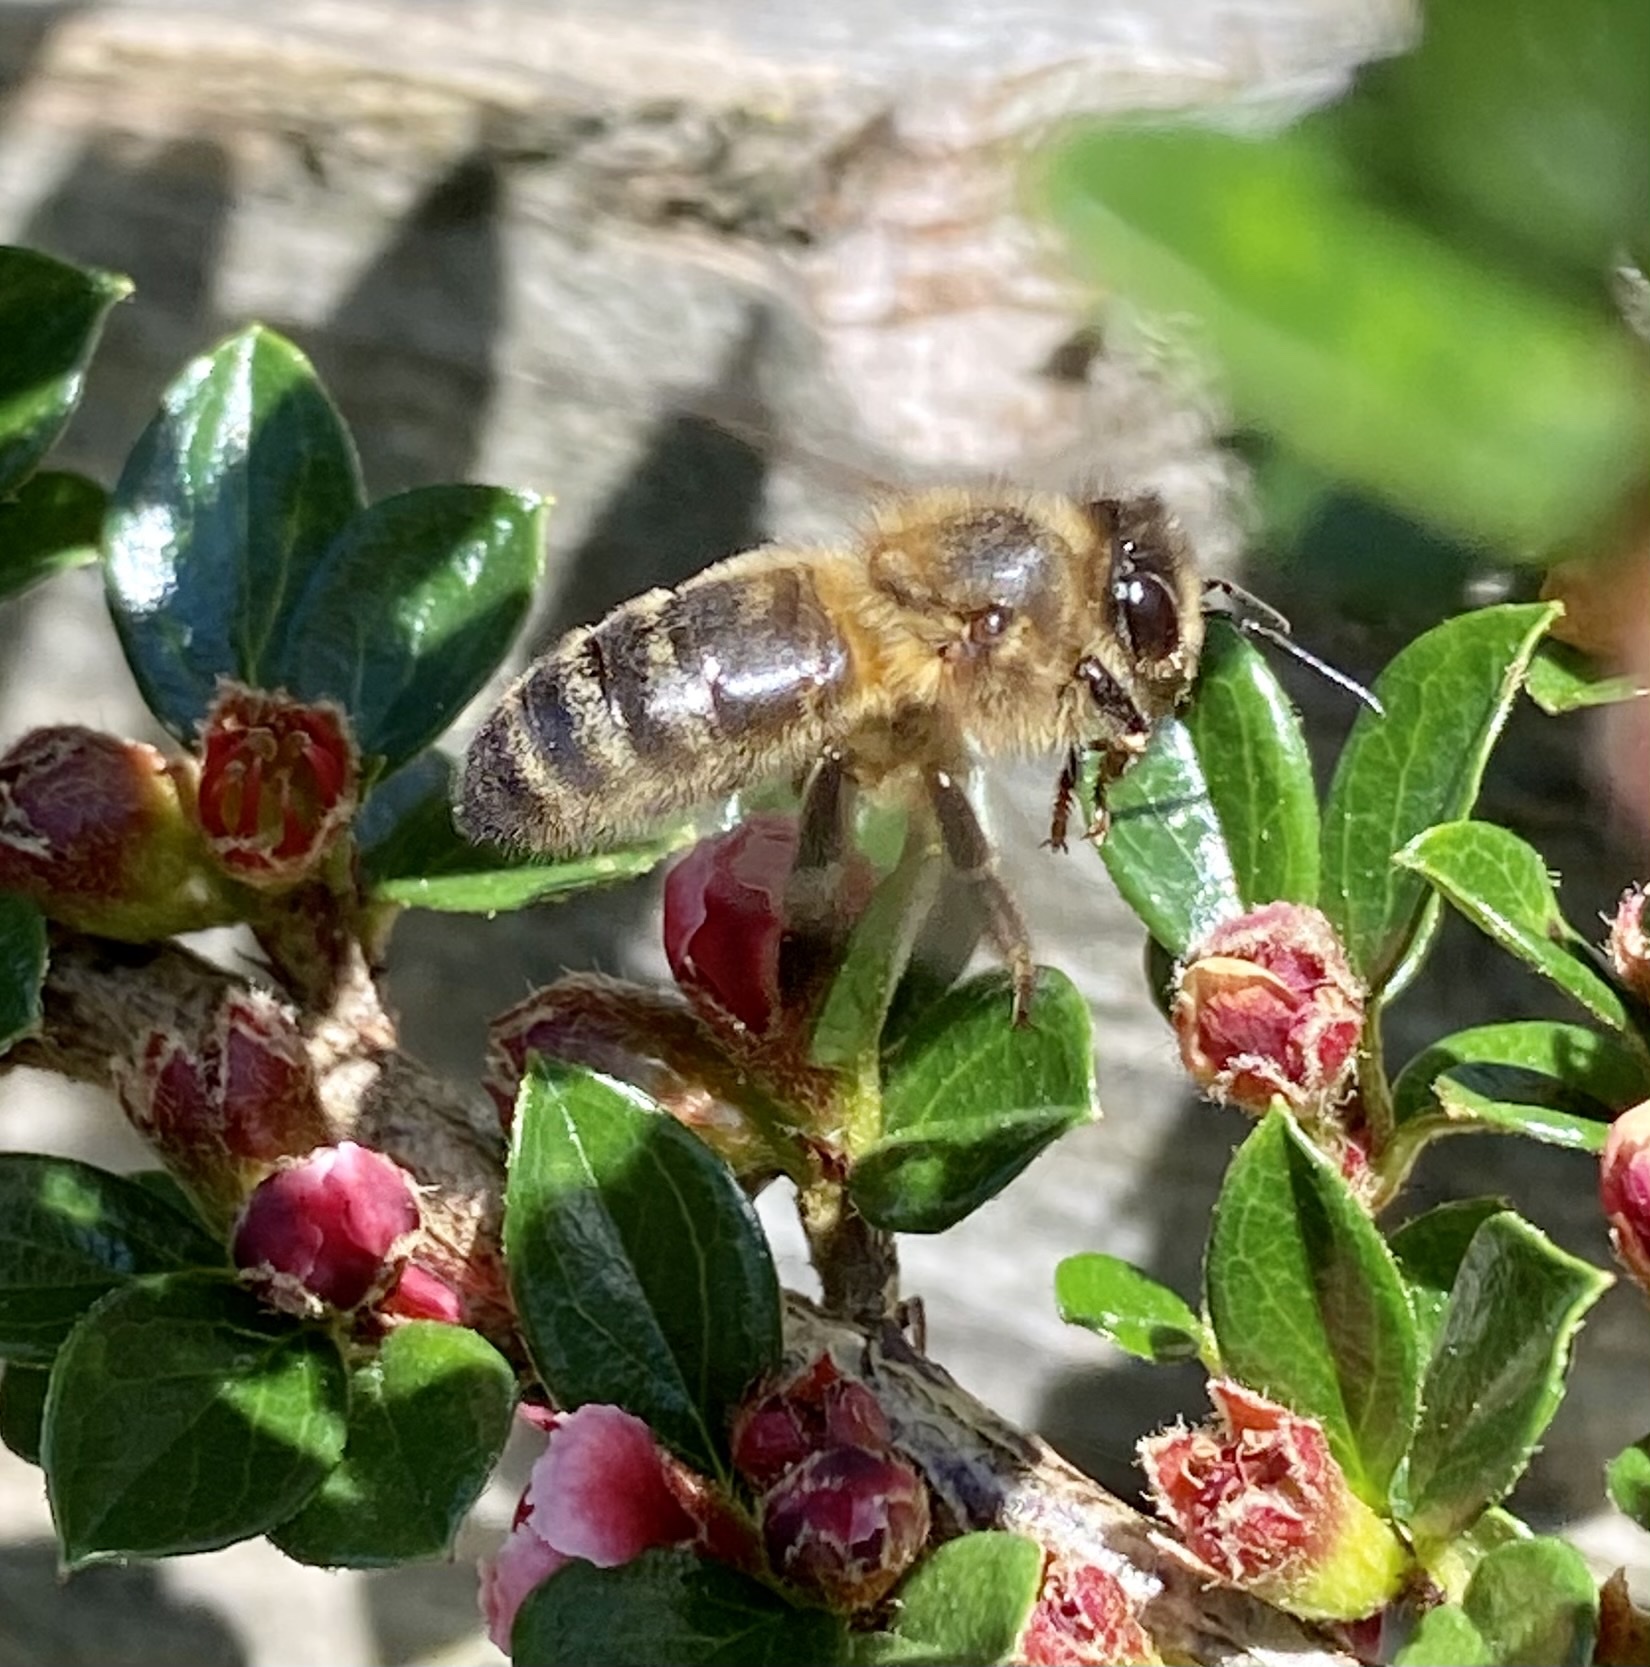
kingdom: Animalia
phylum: Arthropoda
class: Insecta
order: Hymenoptera
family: Apidae
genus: Apis
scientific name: Apis mellifera
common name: Honey bee
